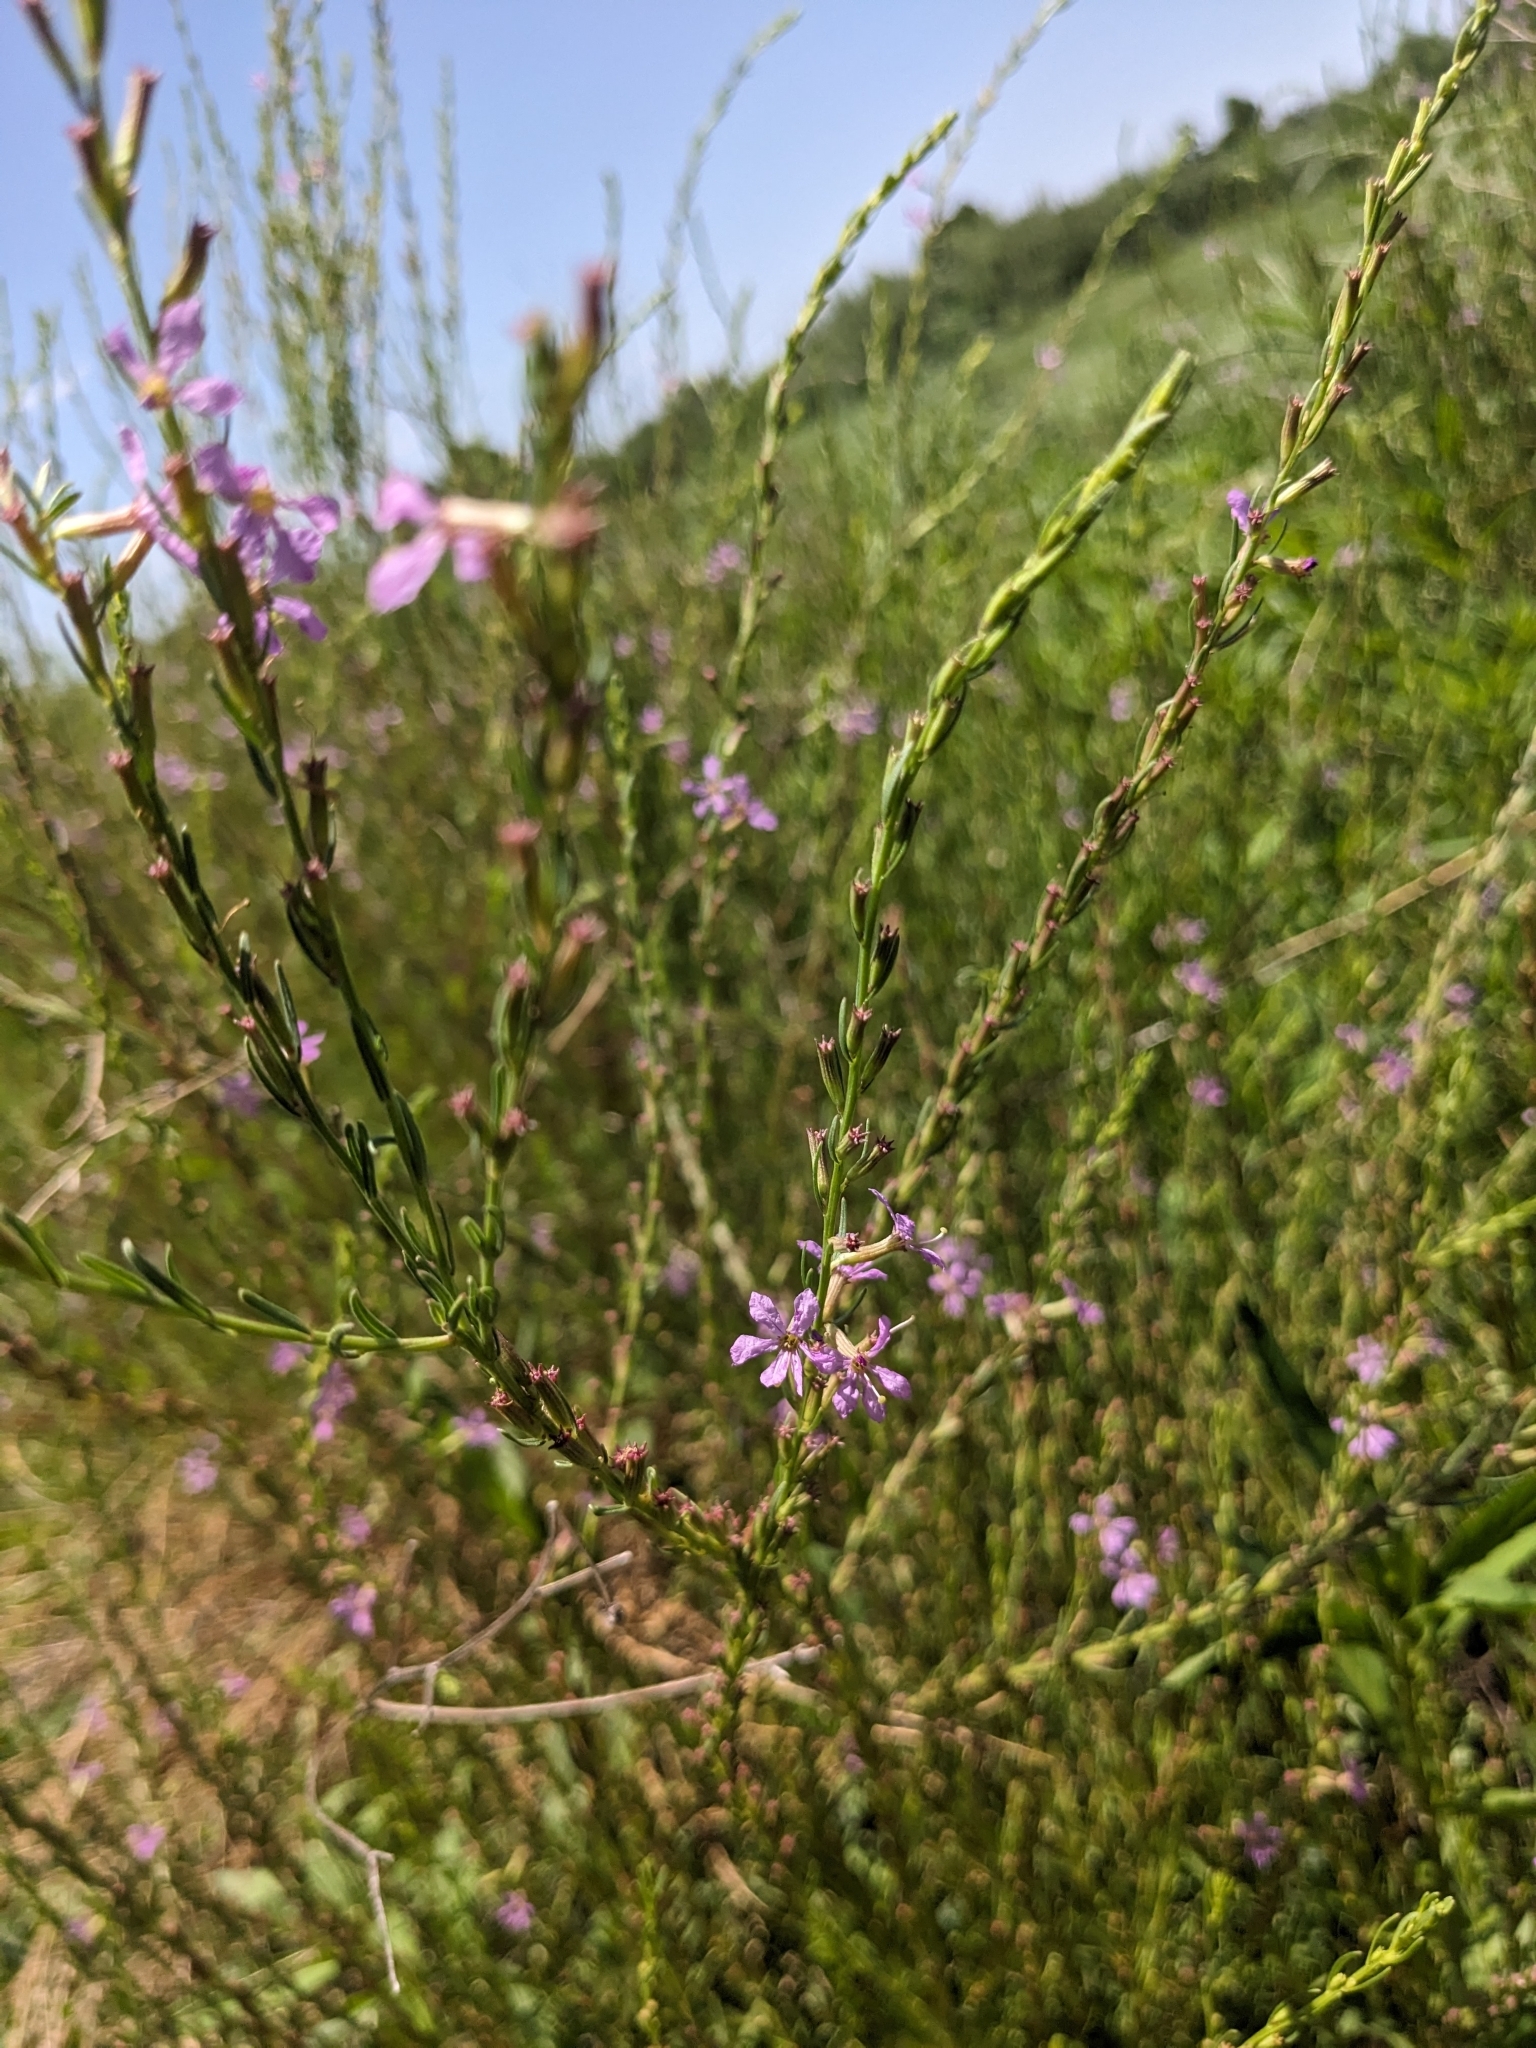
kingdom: Plantae
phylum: Tracheophyta
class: Magnoliopsida
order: Myrtales
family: Lythraceae
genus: Lythrum
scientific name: Lythrum californicum
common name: California loosestrife
